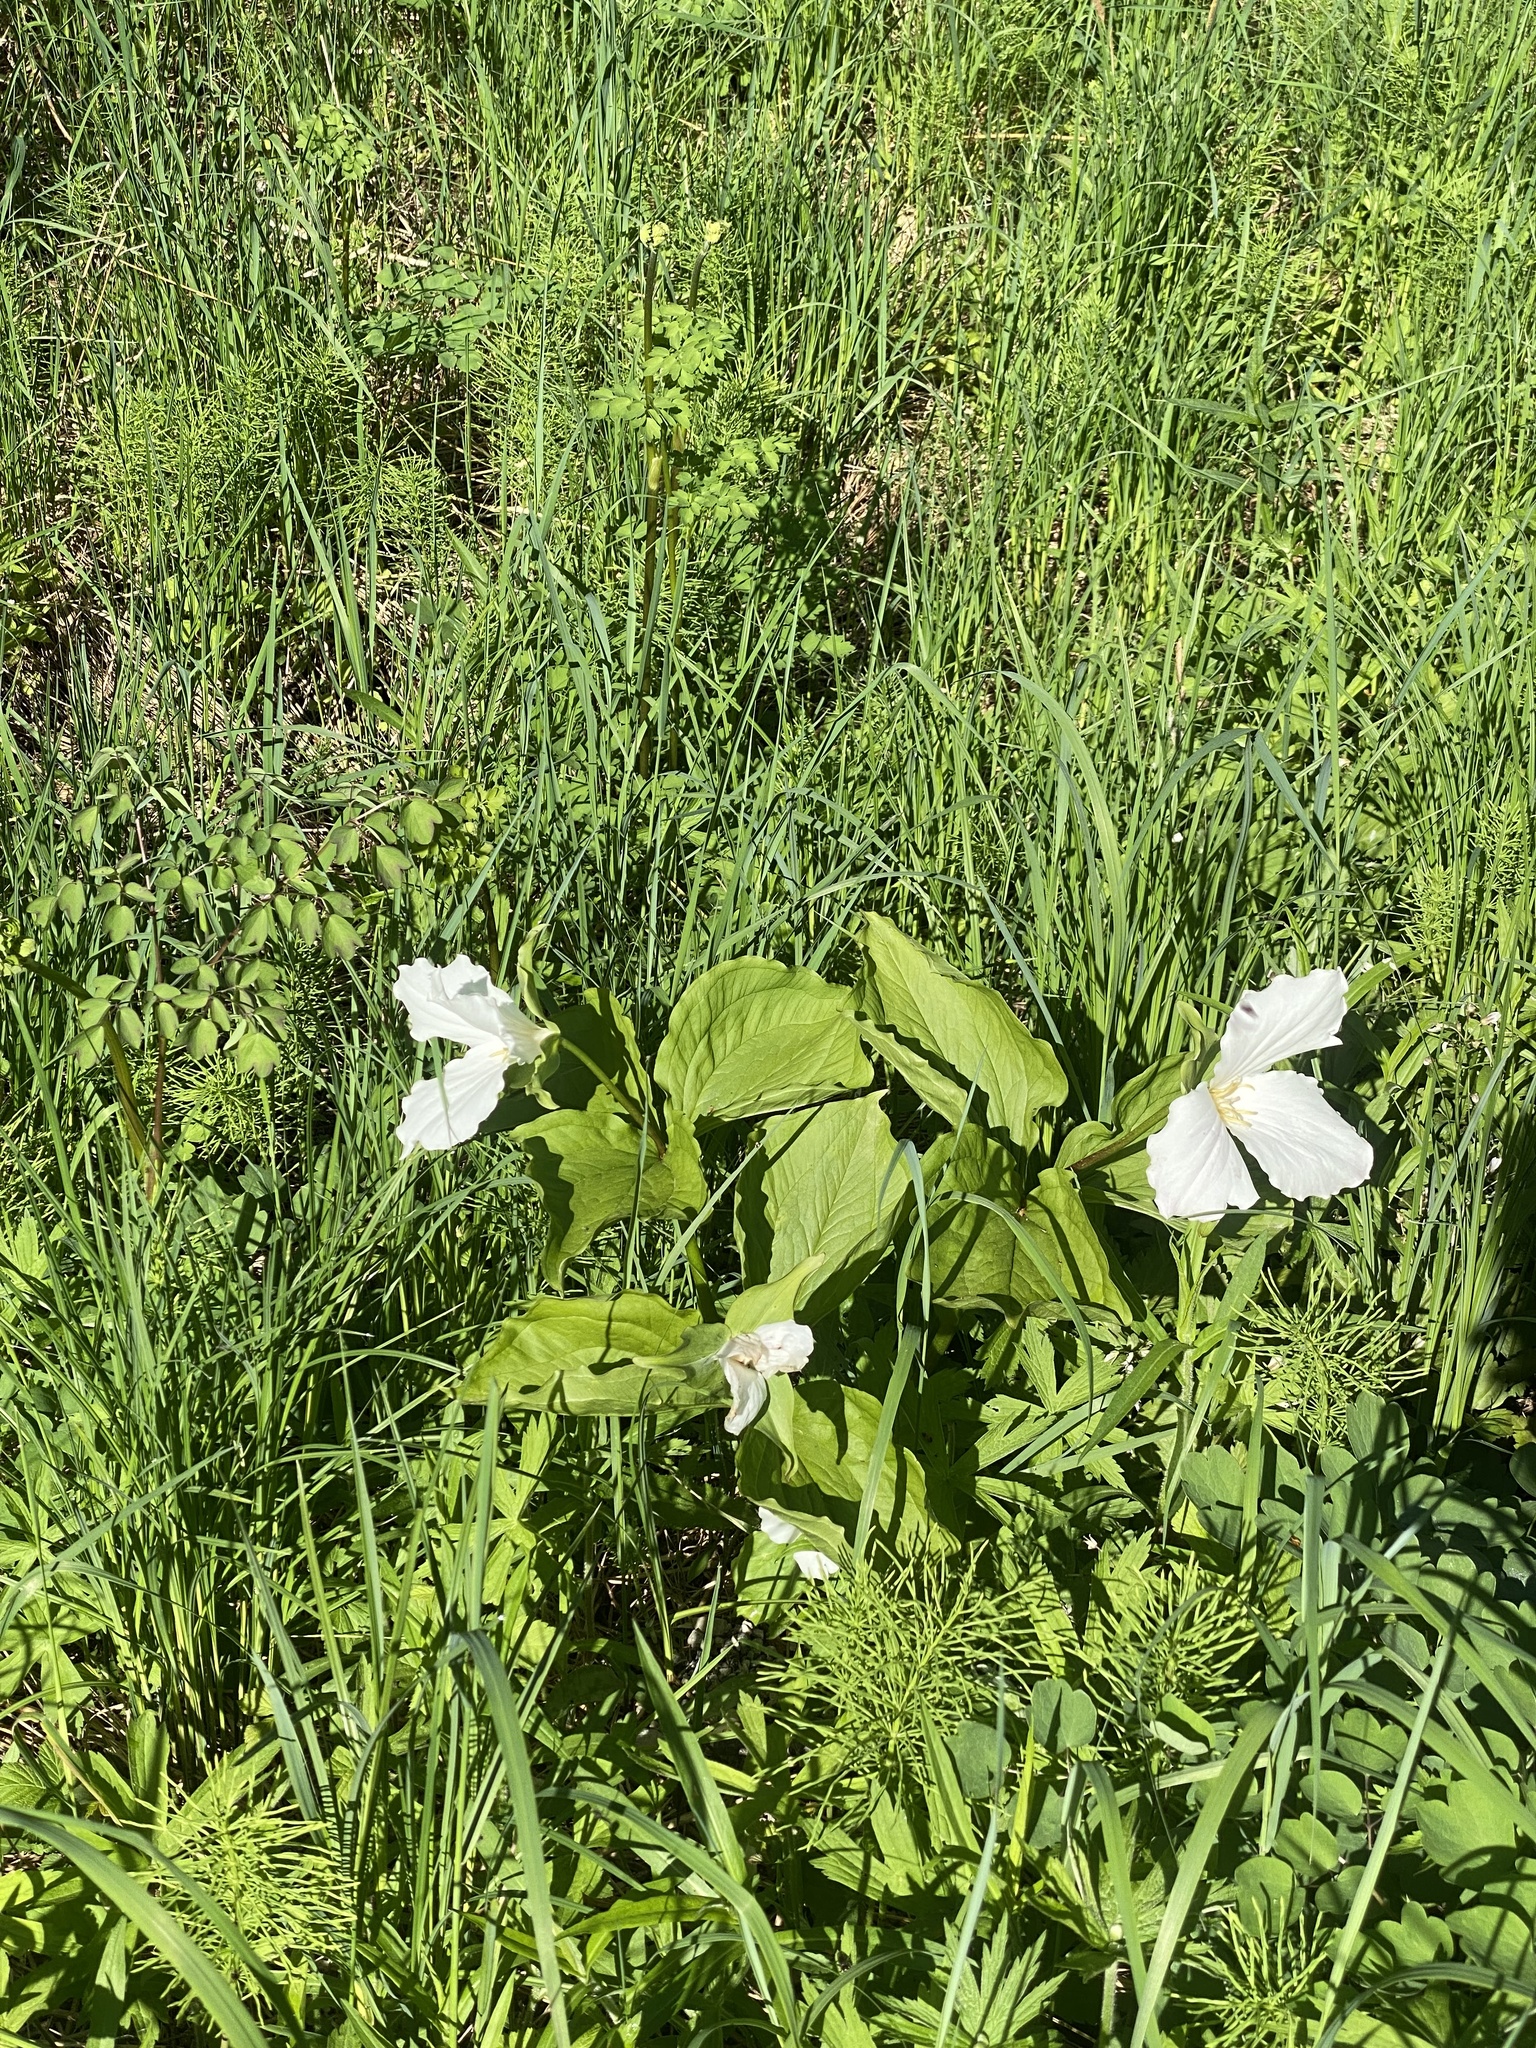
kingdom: Plantae
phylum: Tracheophyta
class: Liliopsida
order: Liliales
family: Melanthiaceae
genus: Trillium
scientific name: Trillium grandiflorum
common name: Great white trillium
